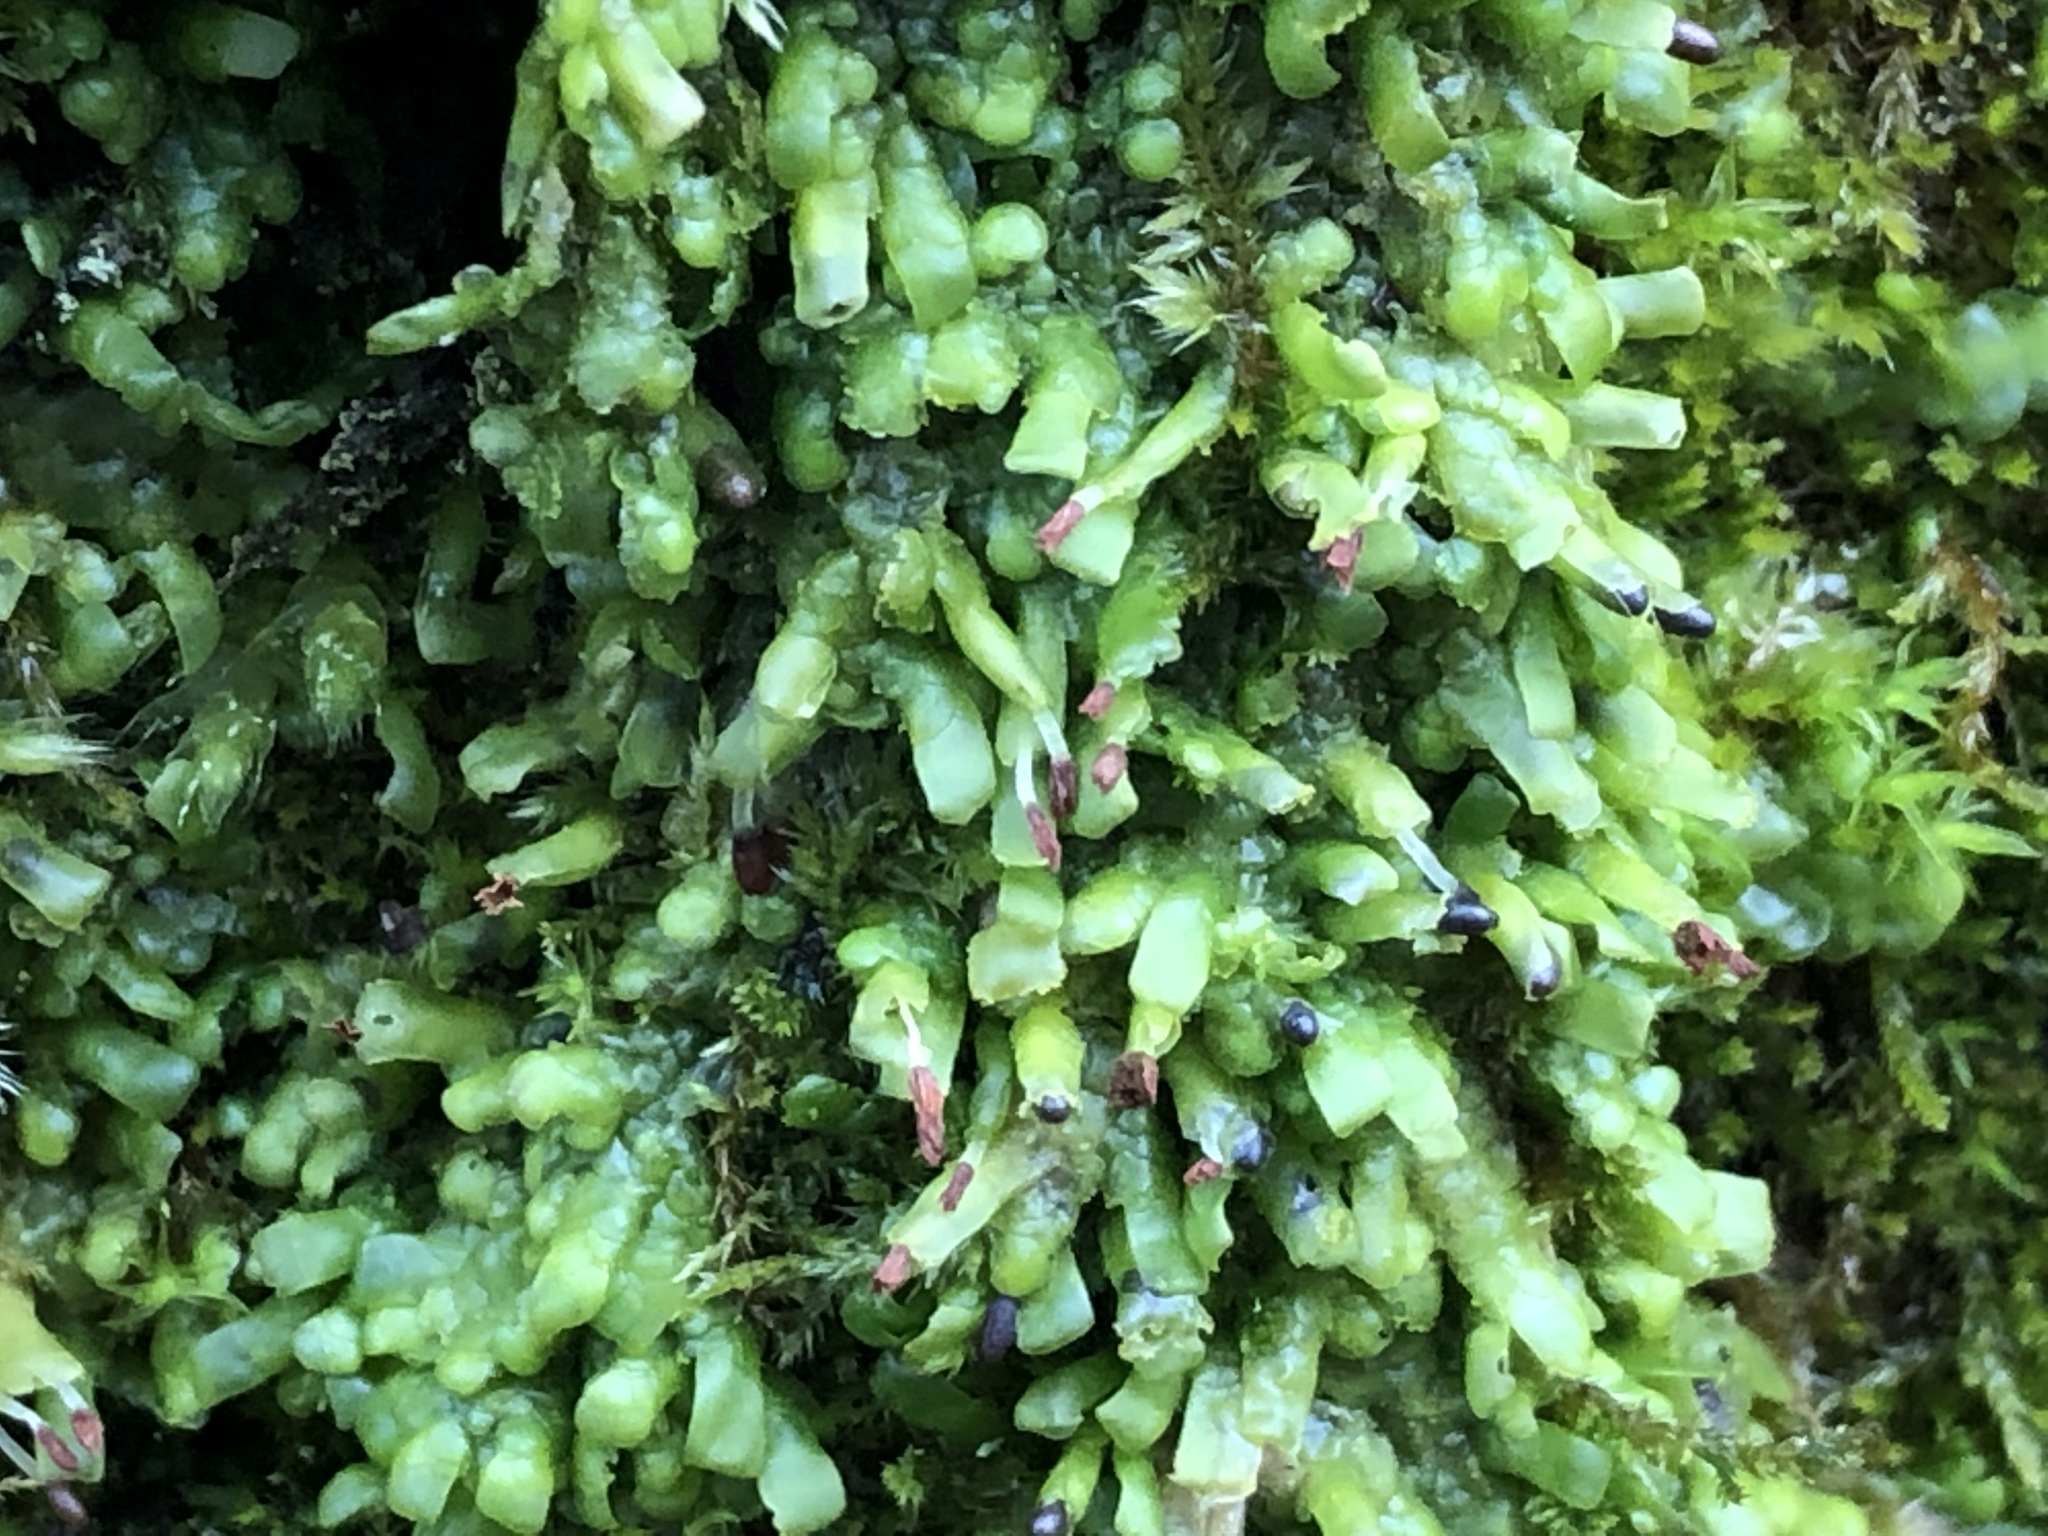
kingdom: Plantae
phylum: Marchantiophyta
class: Jungermanniopsida
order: Porellales
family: Radulaceae
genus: Radula
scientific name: Radula complanata
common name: Flat-leaved scalewort
